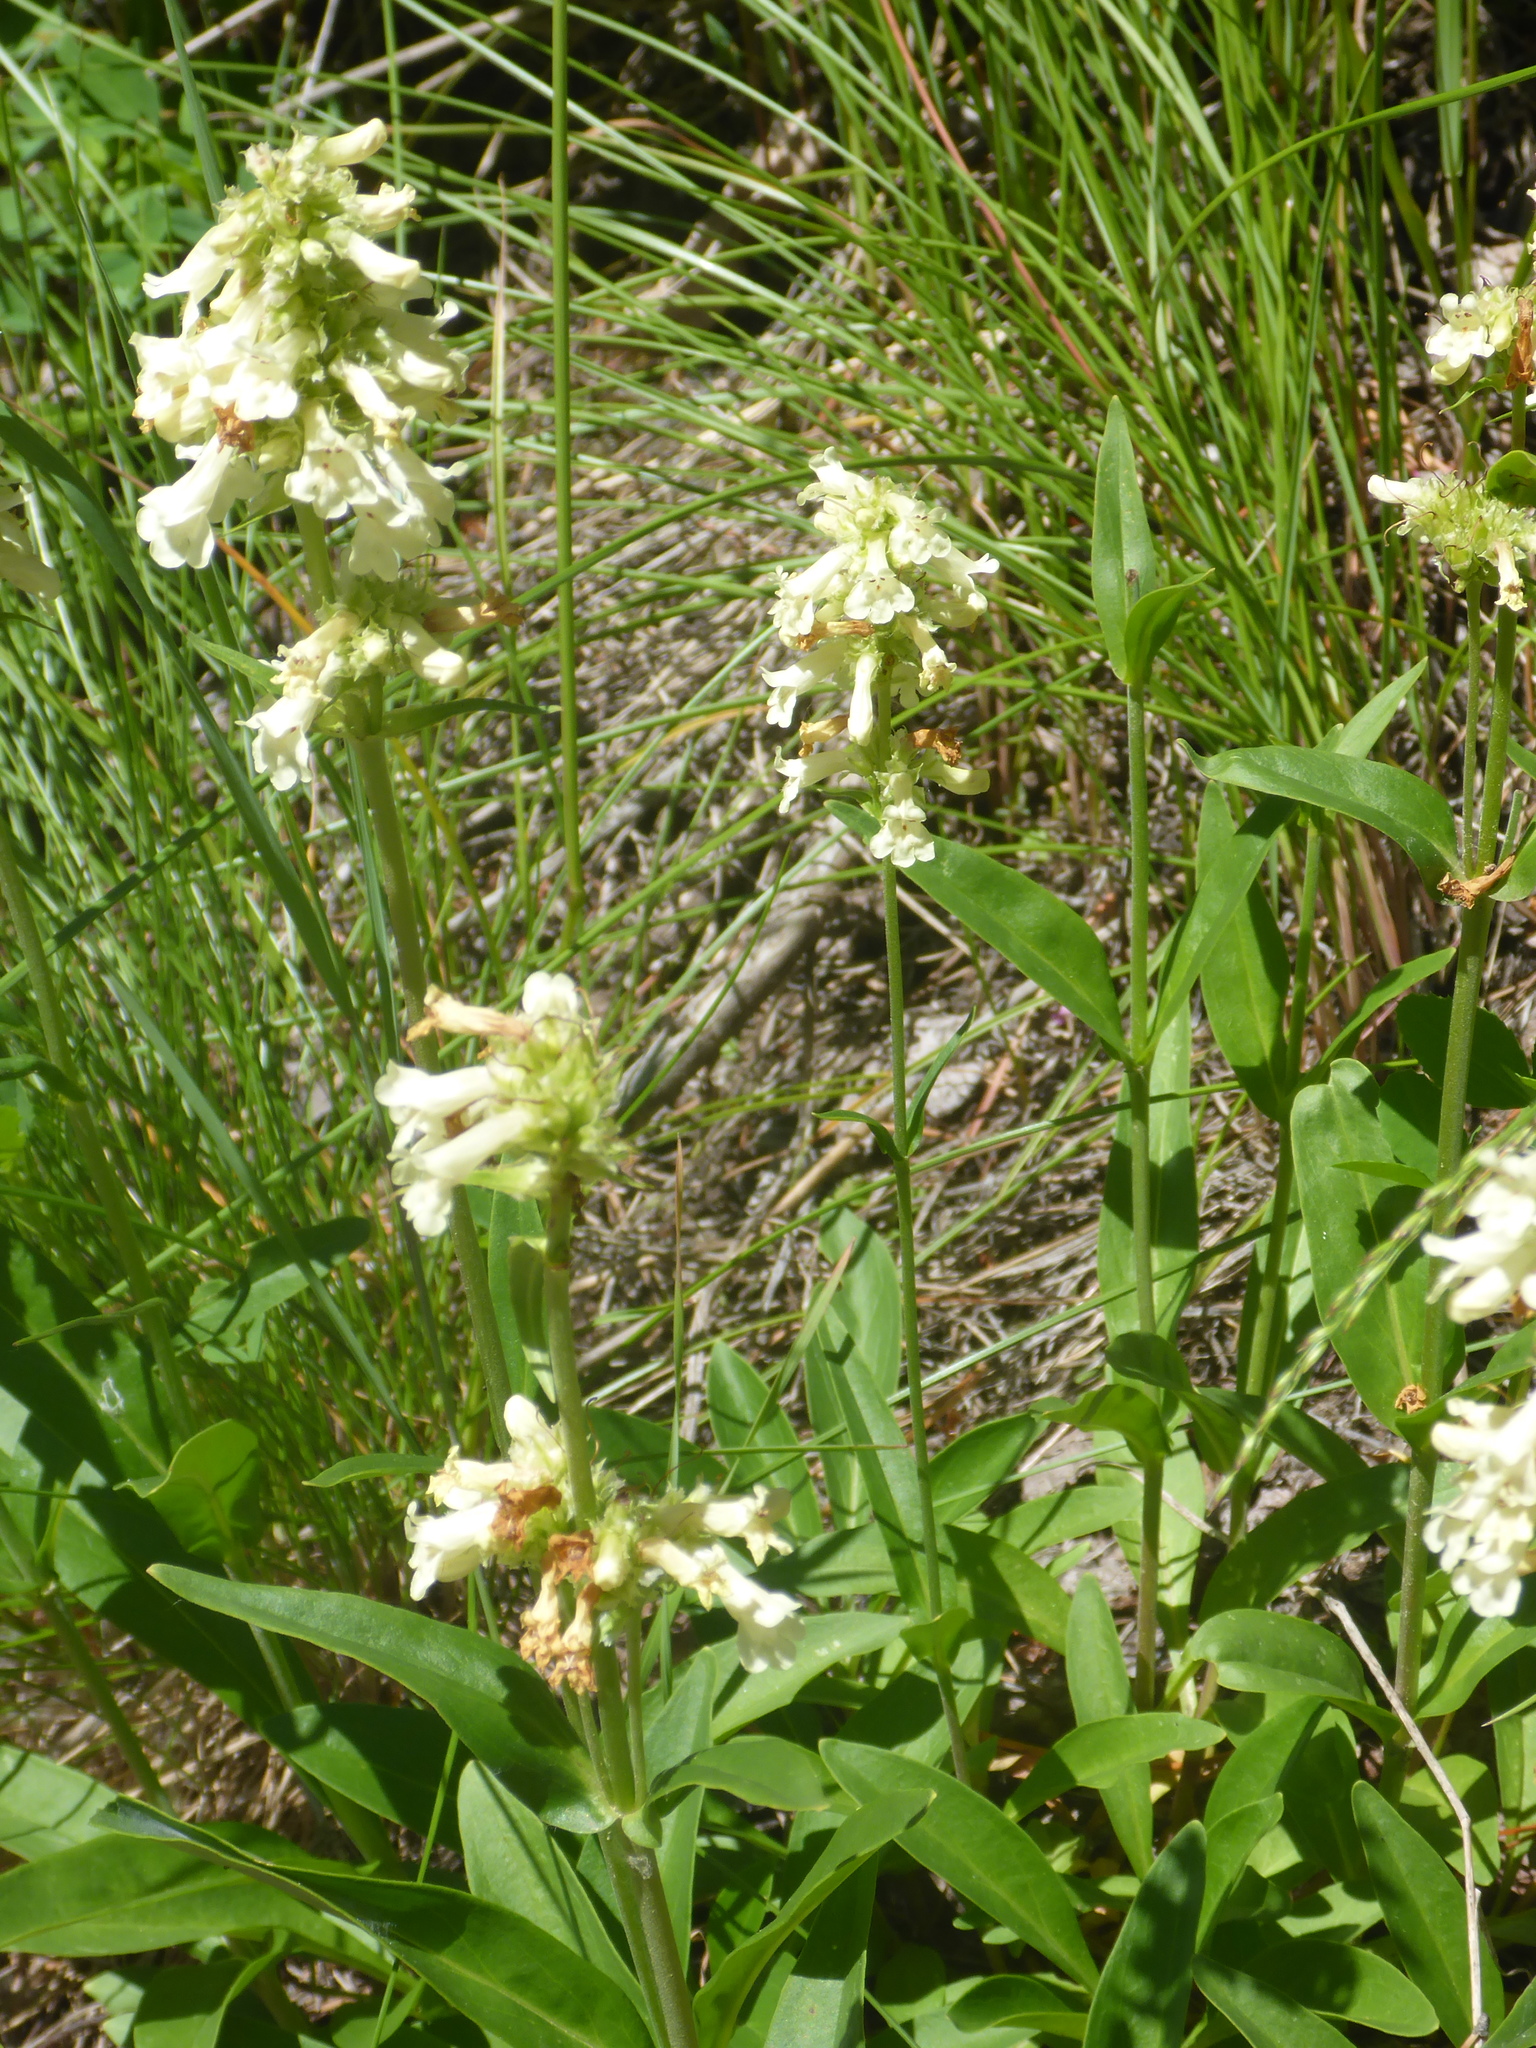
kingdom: Plantae
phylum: Tracheophyta
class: Magnoliopsida
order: Lamiales
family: Plantaginaceae
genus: Penstemon
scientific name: Penstemon confertus
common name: Lesser yellow beardtongue
